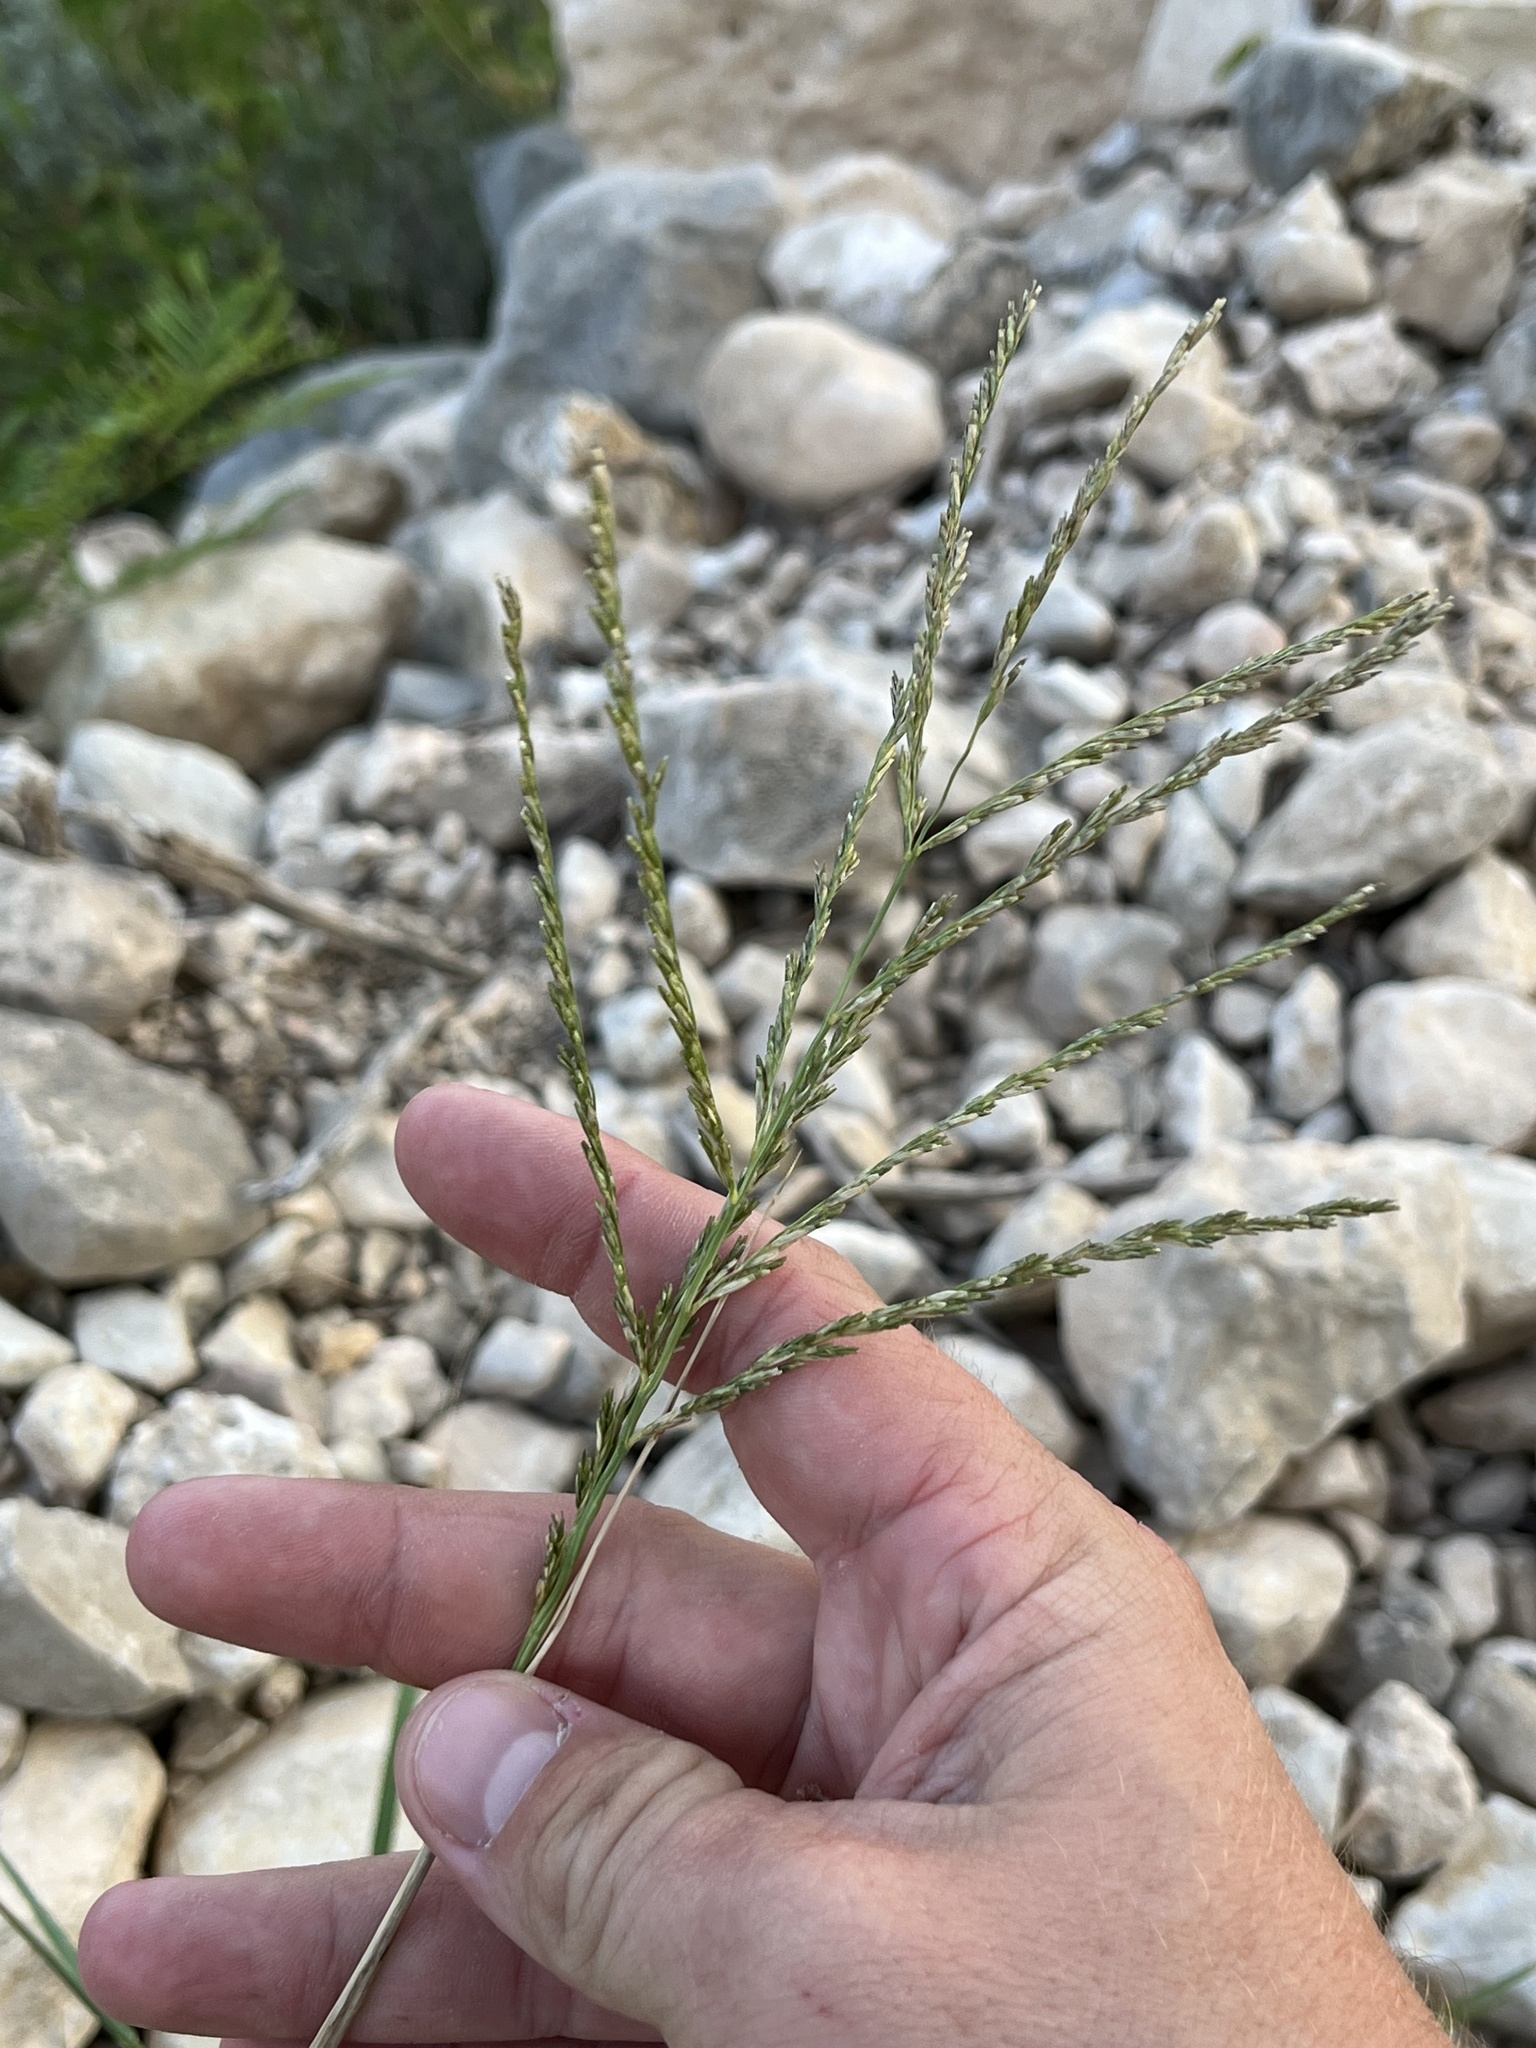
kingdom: Plantae
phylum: Tracheophyta
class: Liliopsida
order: Poales
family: Poaceae
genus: Disakisperma
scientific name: Disakisperma dubium
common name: Green sprangletop
